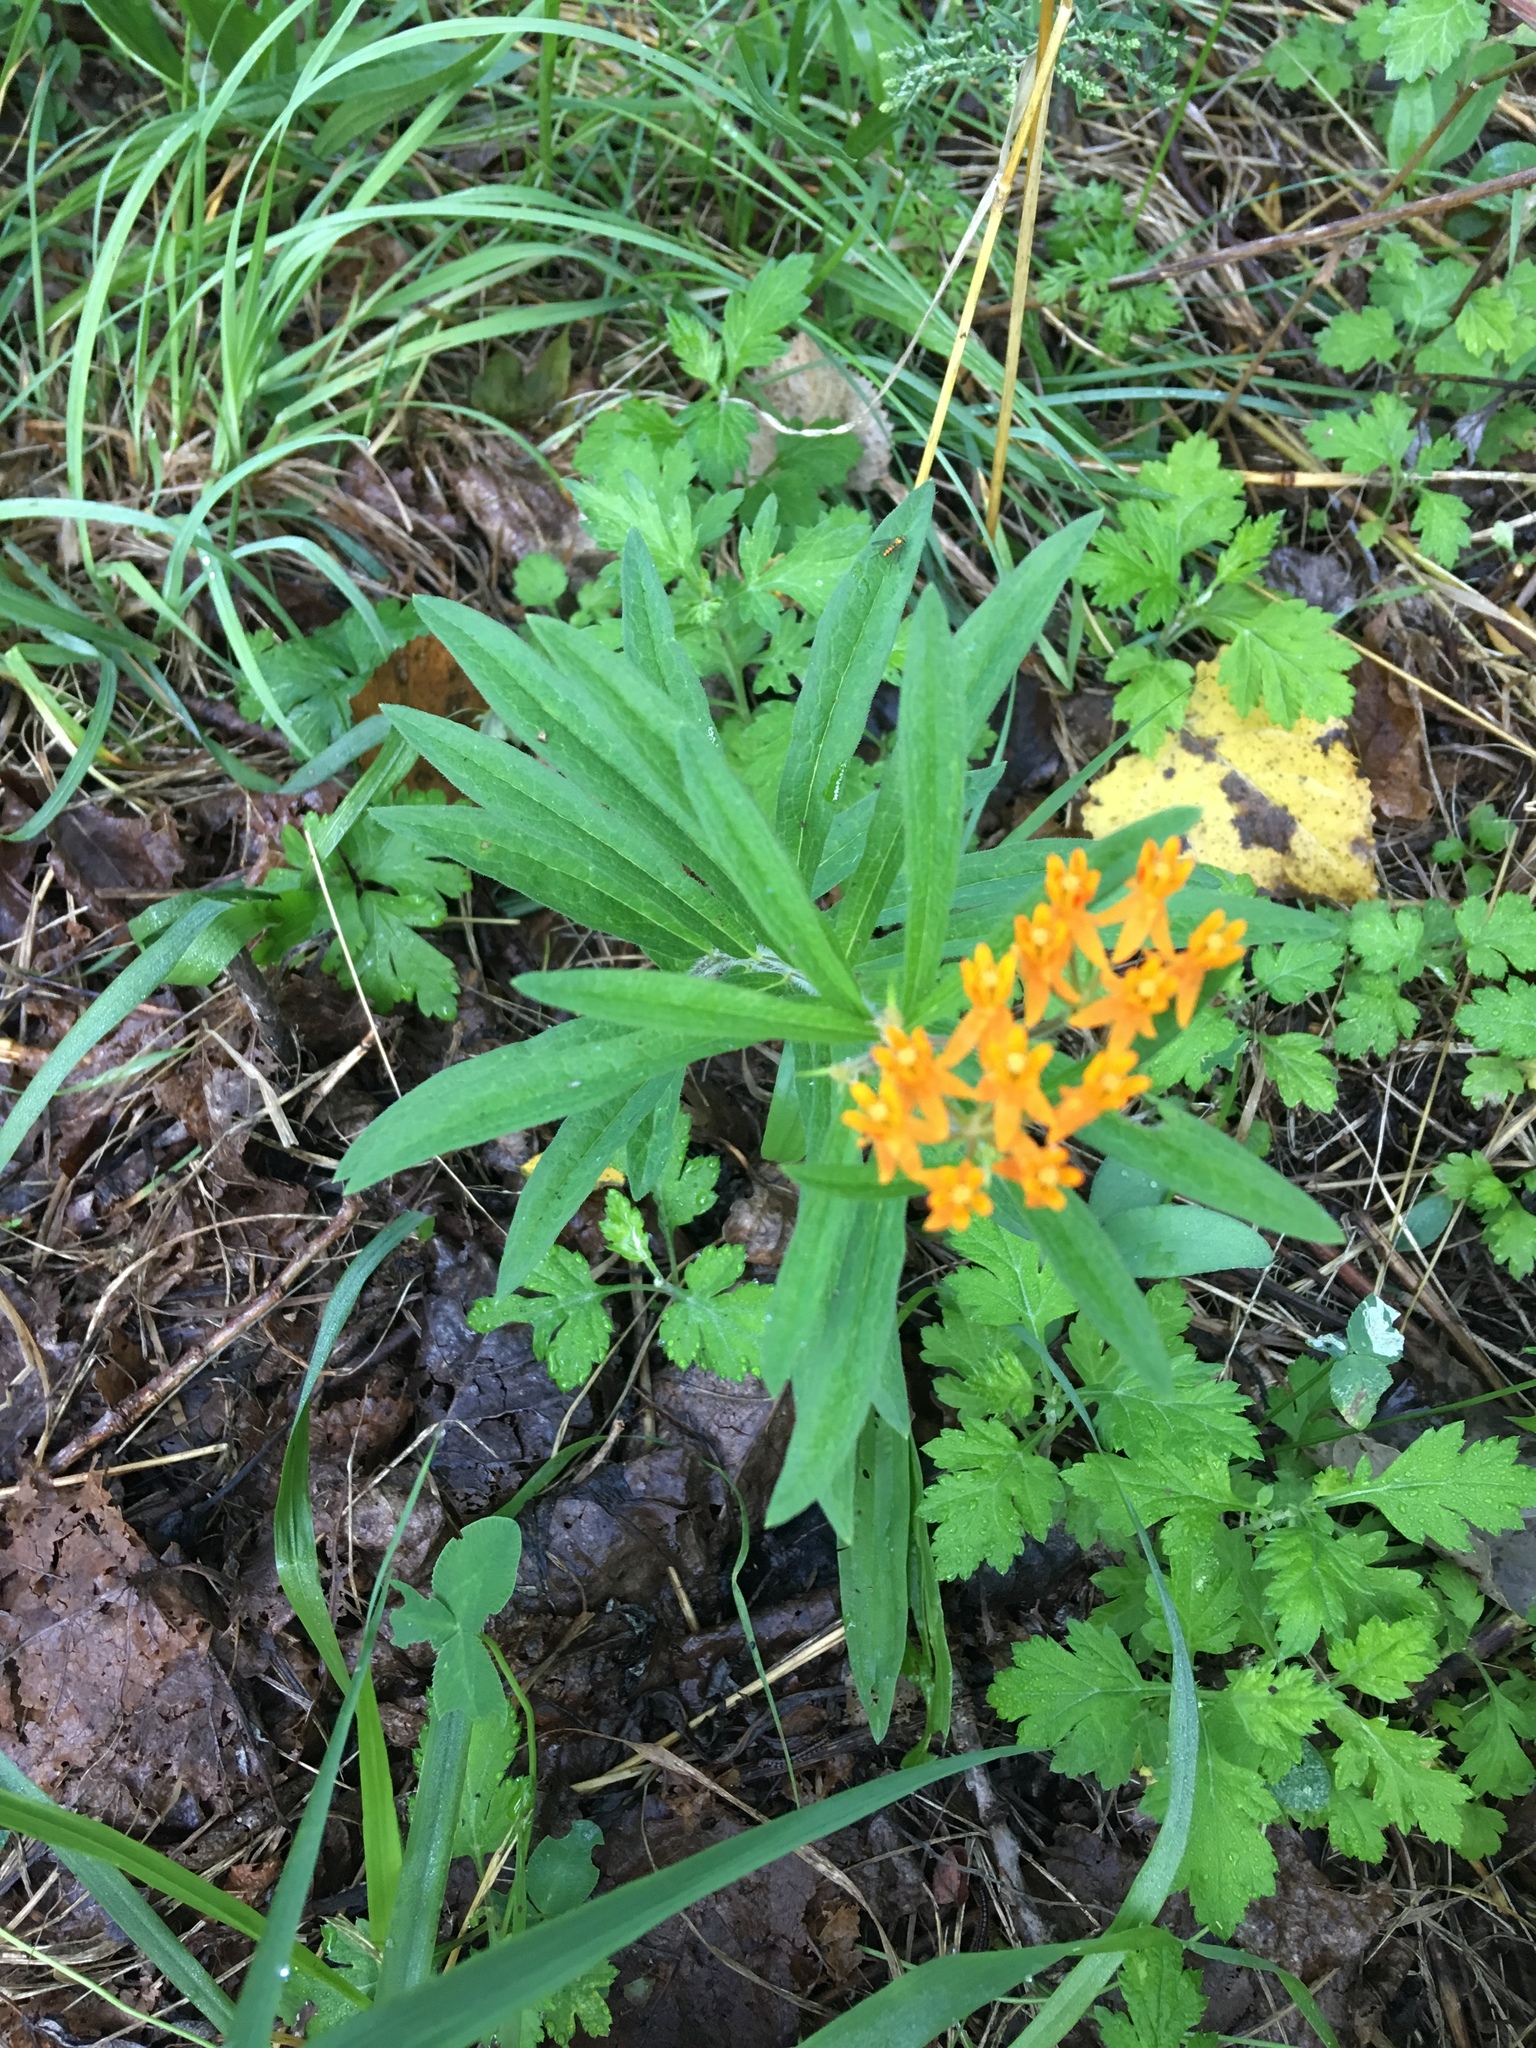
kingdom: Plantae
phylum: Tracheophyta
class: Magnoliopsida
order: Gentianales
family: Apocynaceae
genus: Asclepias
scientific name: Asclepias tuberosa
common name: Butterfly milkweed
